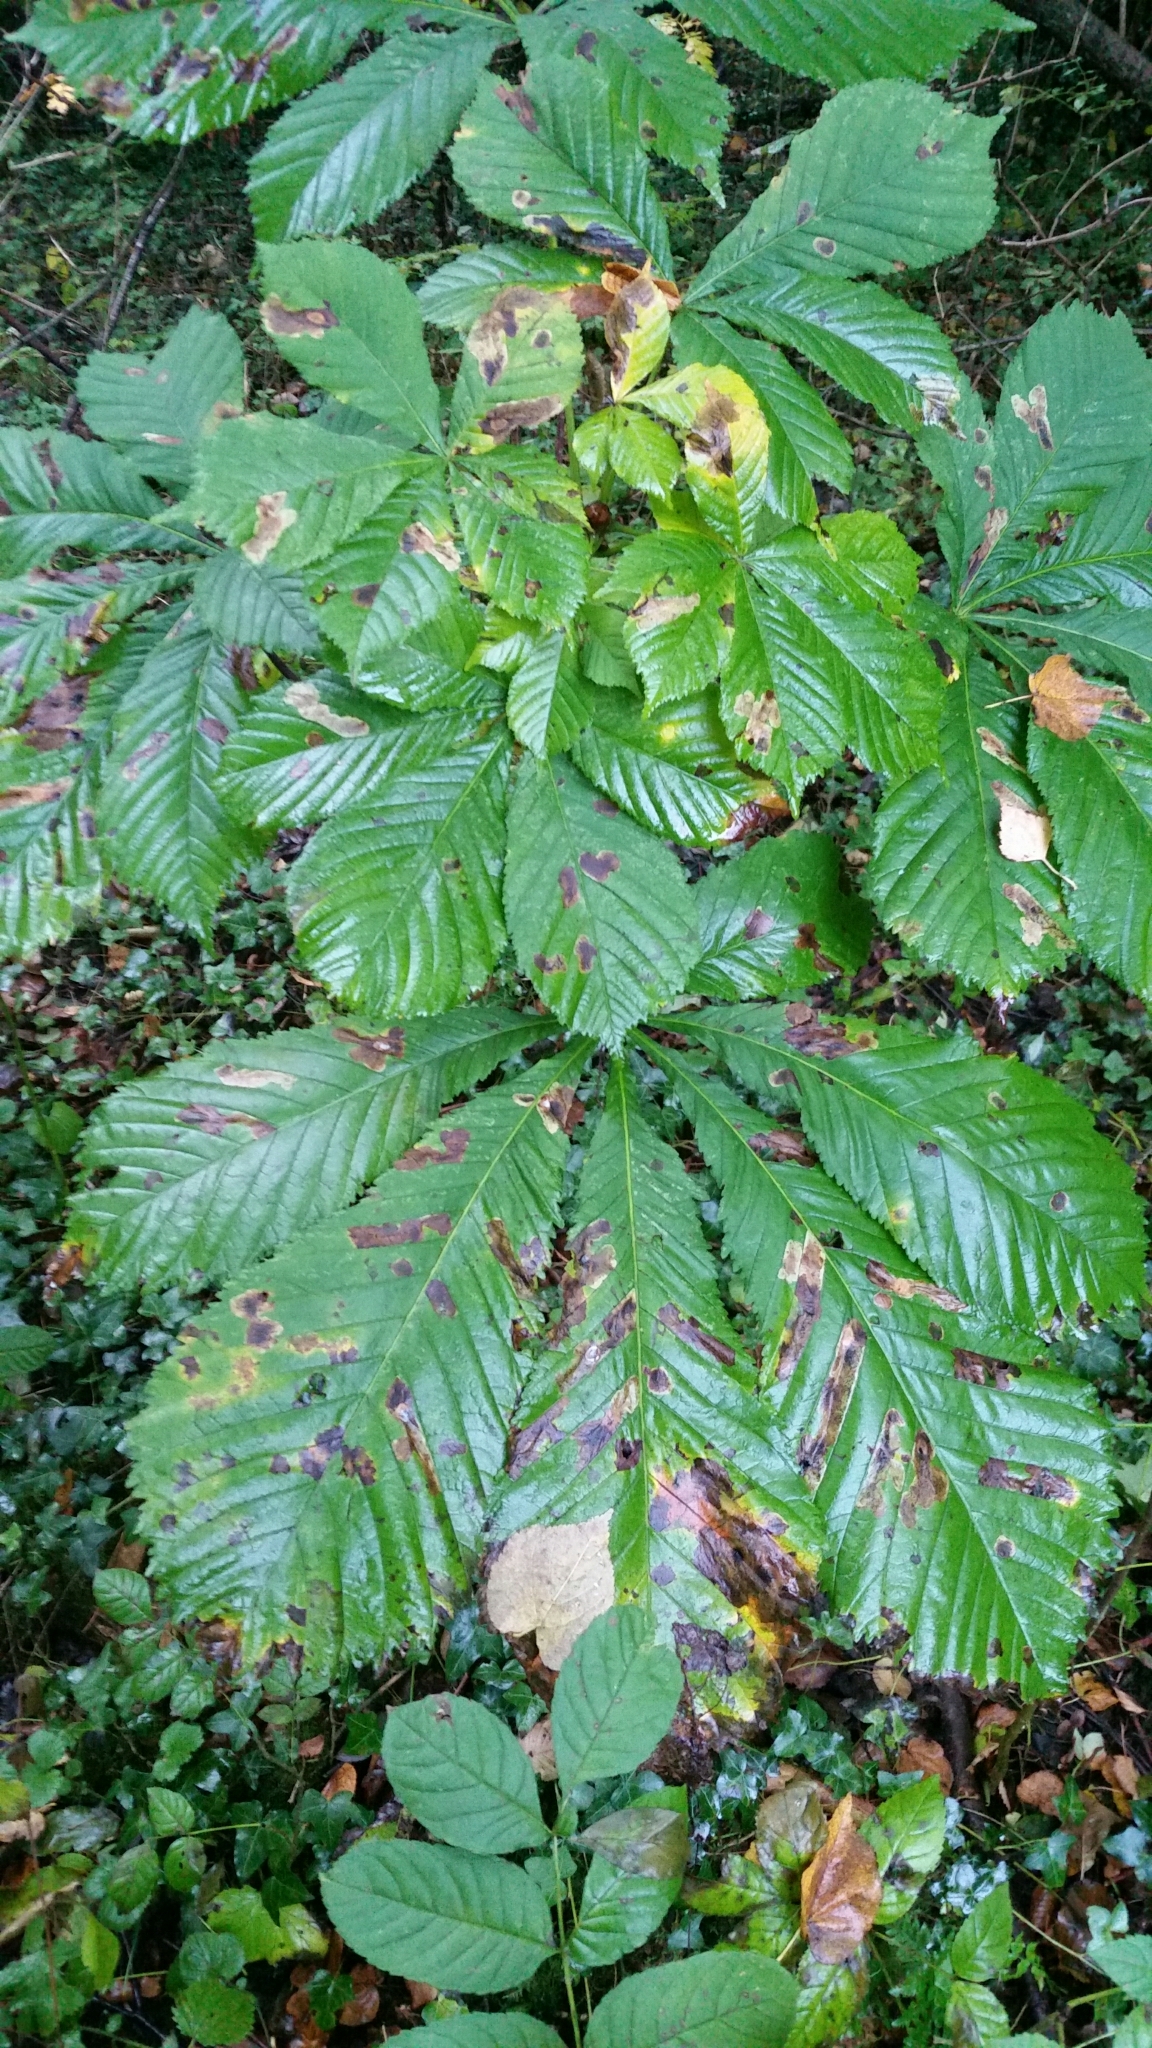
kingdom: Plantae
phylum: Tracheophyta
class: Magnoliopsida
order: Sapindales
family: Sapindaceae
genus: Aesculus
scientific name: Aesculus hippocastanum
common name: Horse-chestnut
